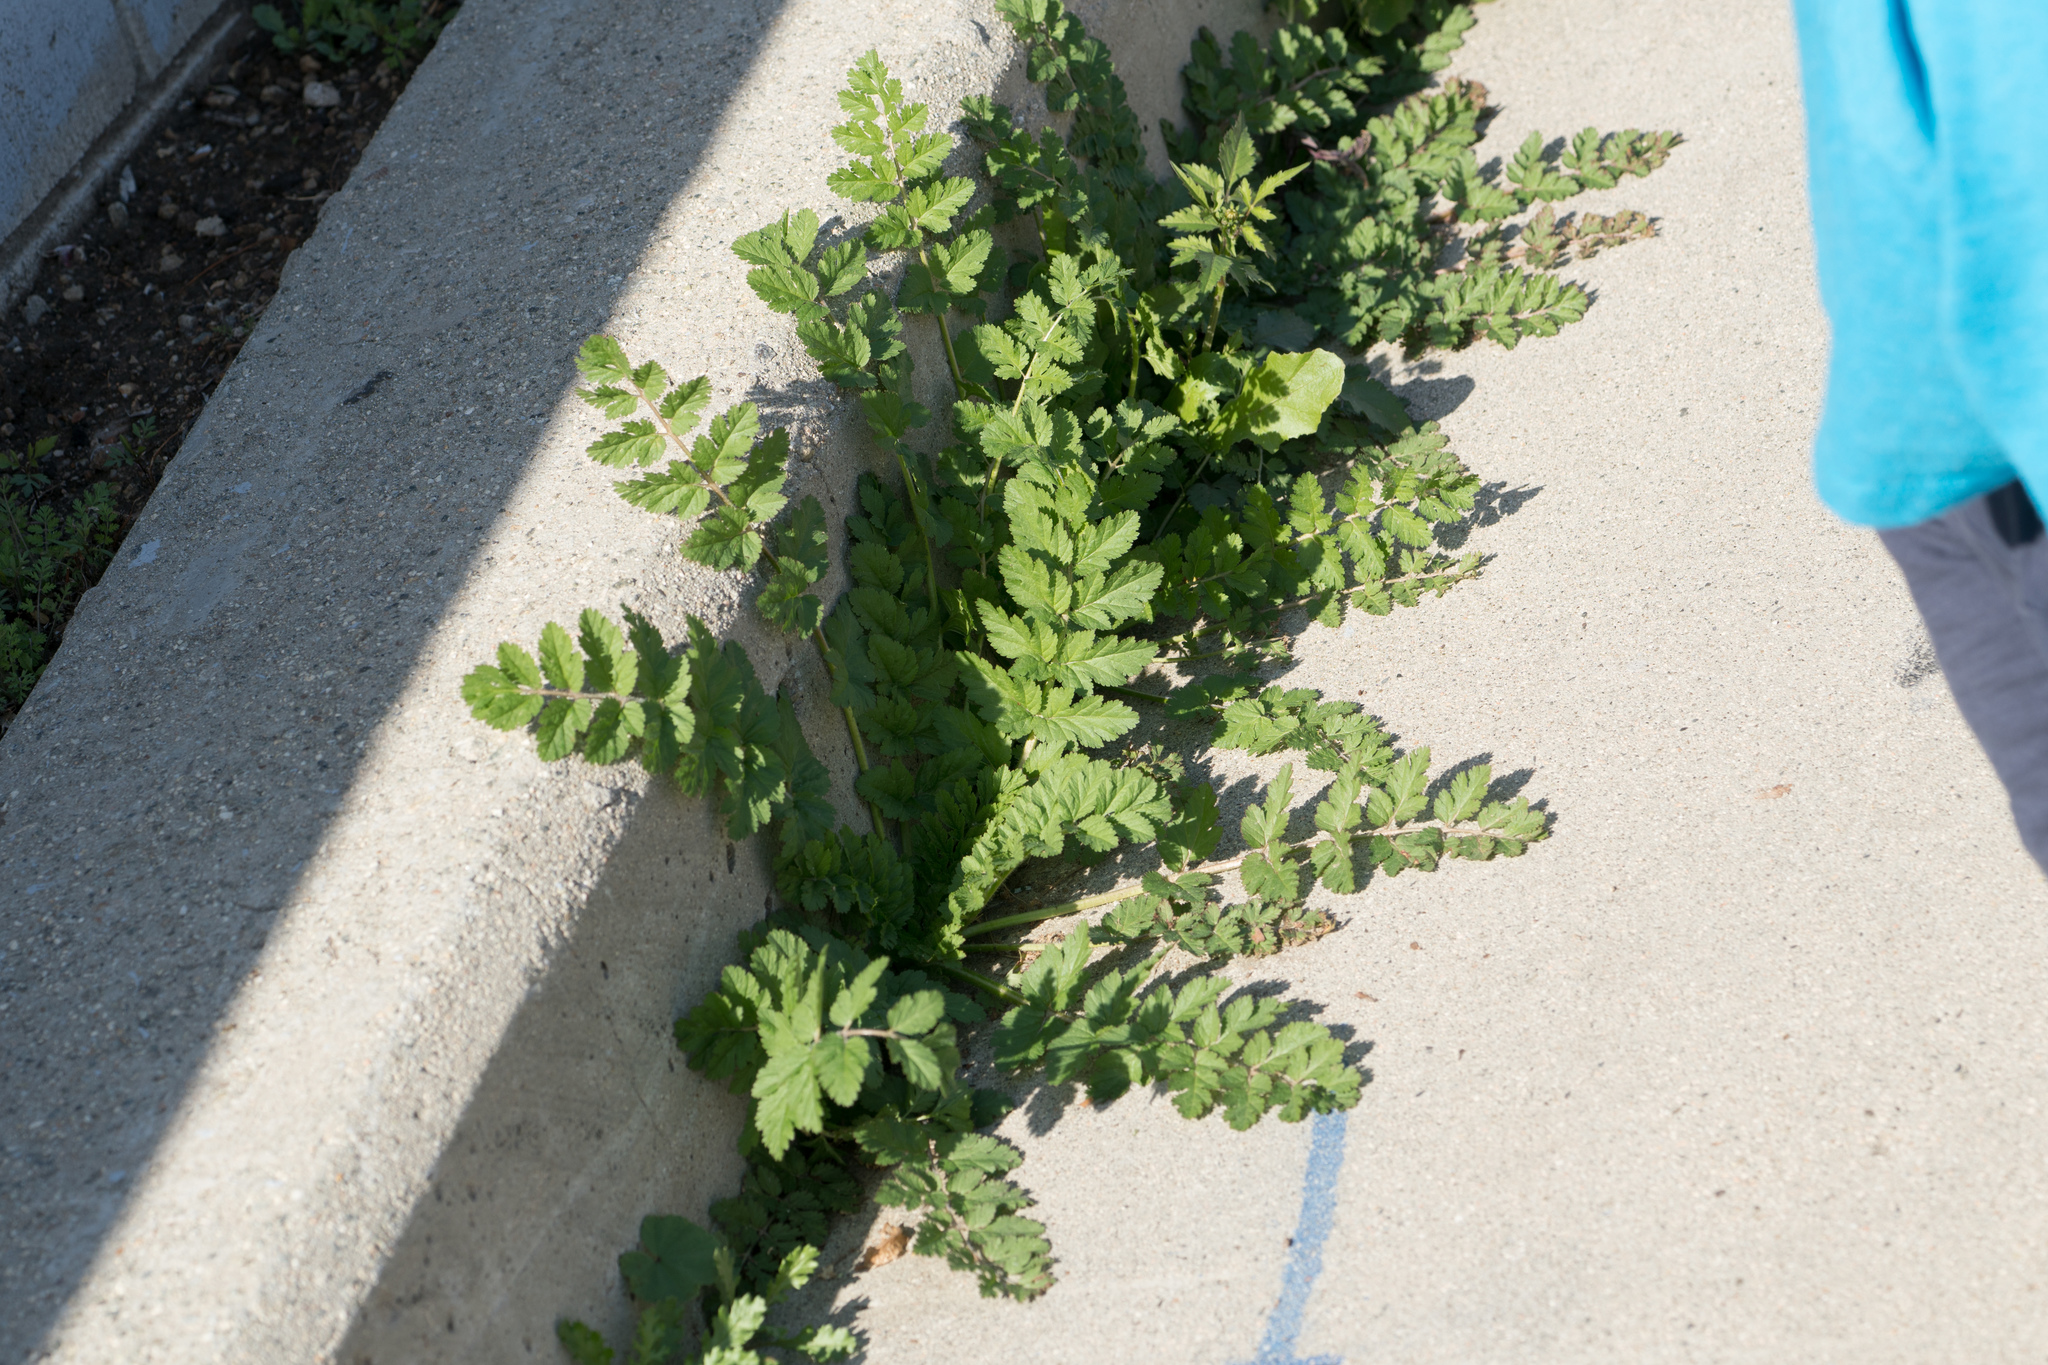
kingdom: Plantae
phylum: Tracheophyta
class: Magnoliopsida
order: Geraniales
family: Geraniaceae
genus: Erodium
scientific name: Erodium moschatum
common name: Musk stork's-bill
